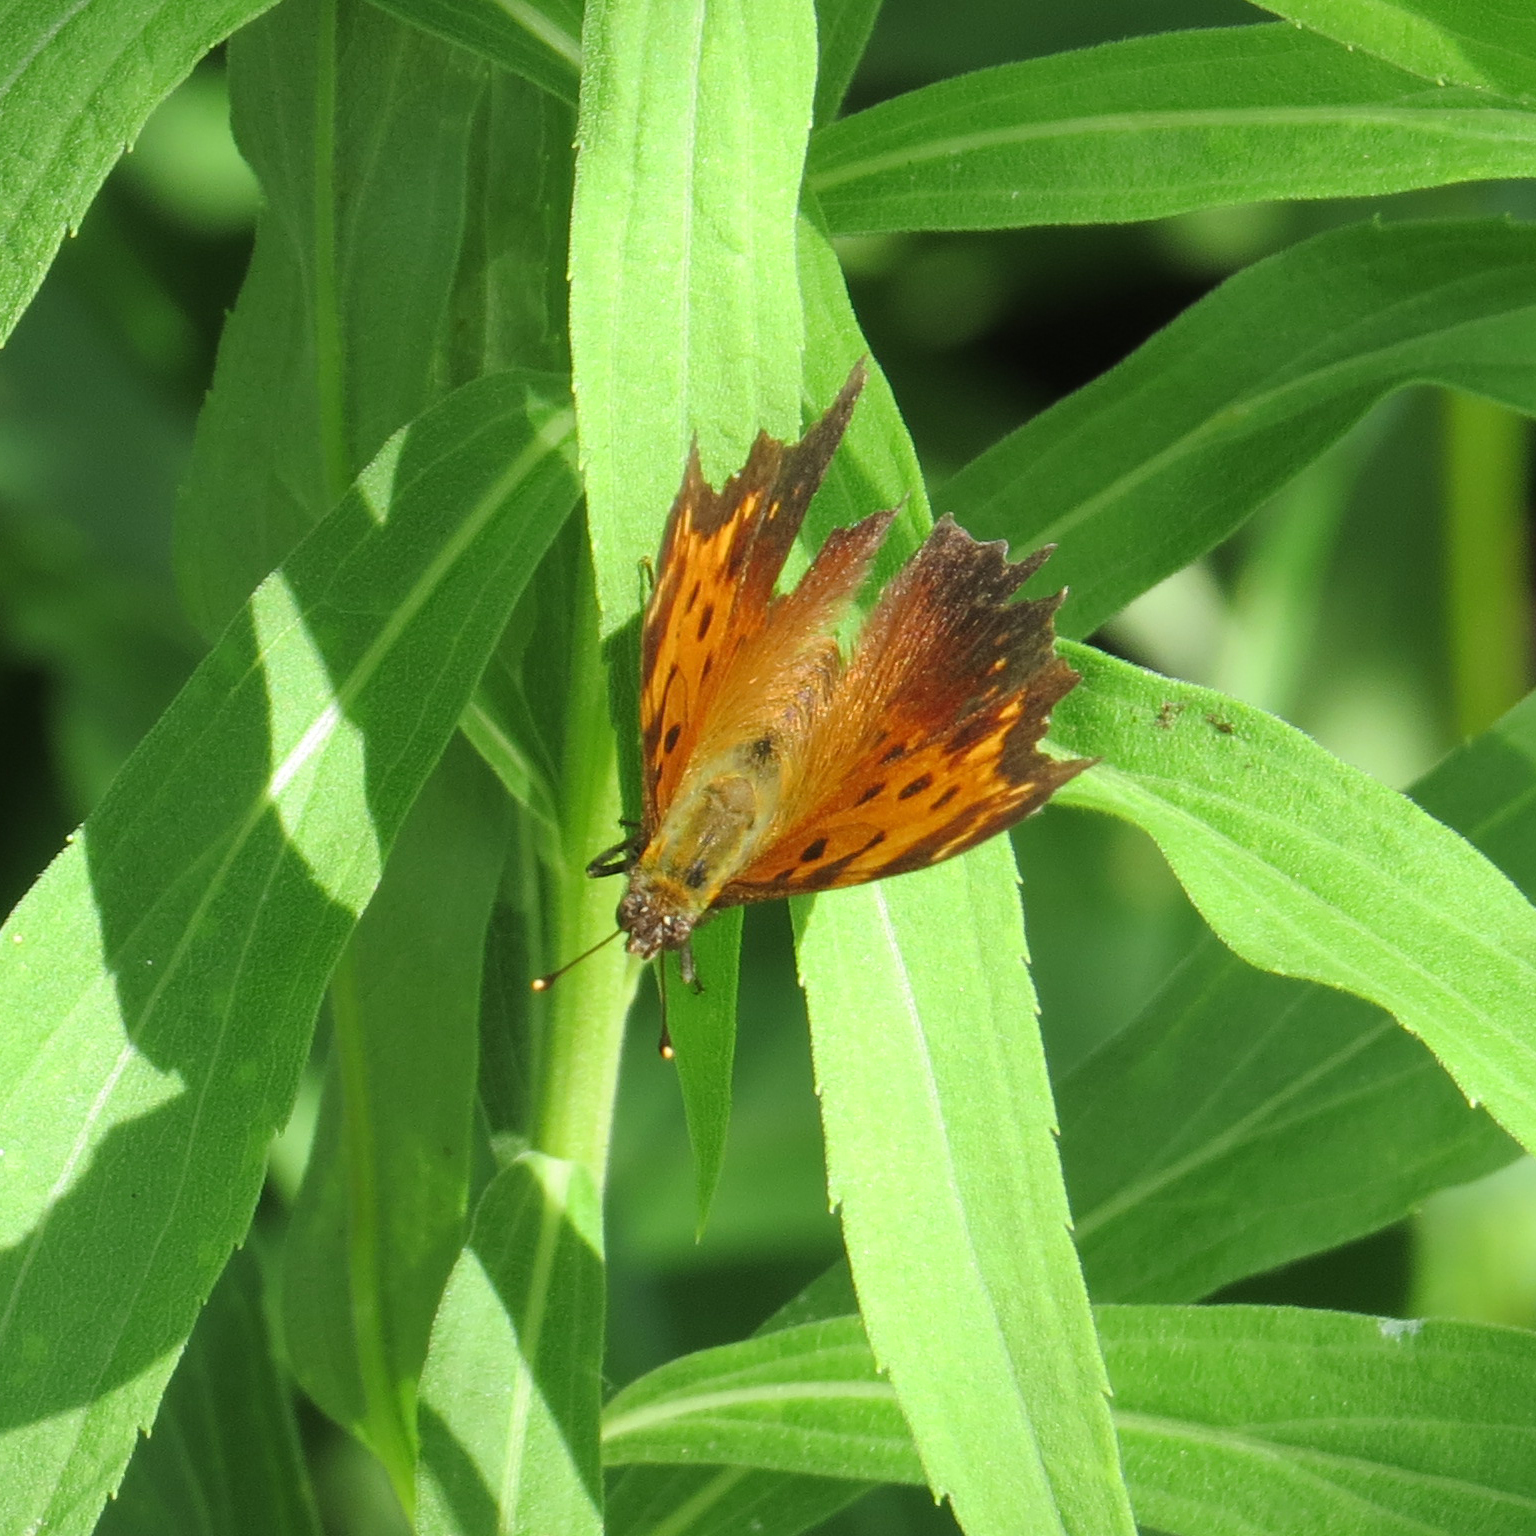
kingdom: Animalia
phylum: Arthropoda
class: Insecta
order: Lepidoptera
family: Nymphalidae
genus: Polygonia
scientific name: Polygonia progne
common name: Gray comma
